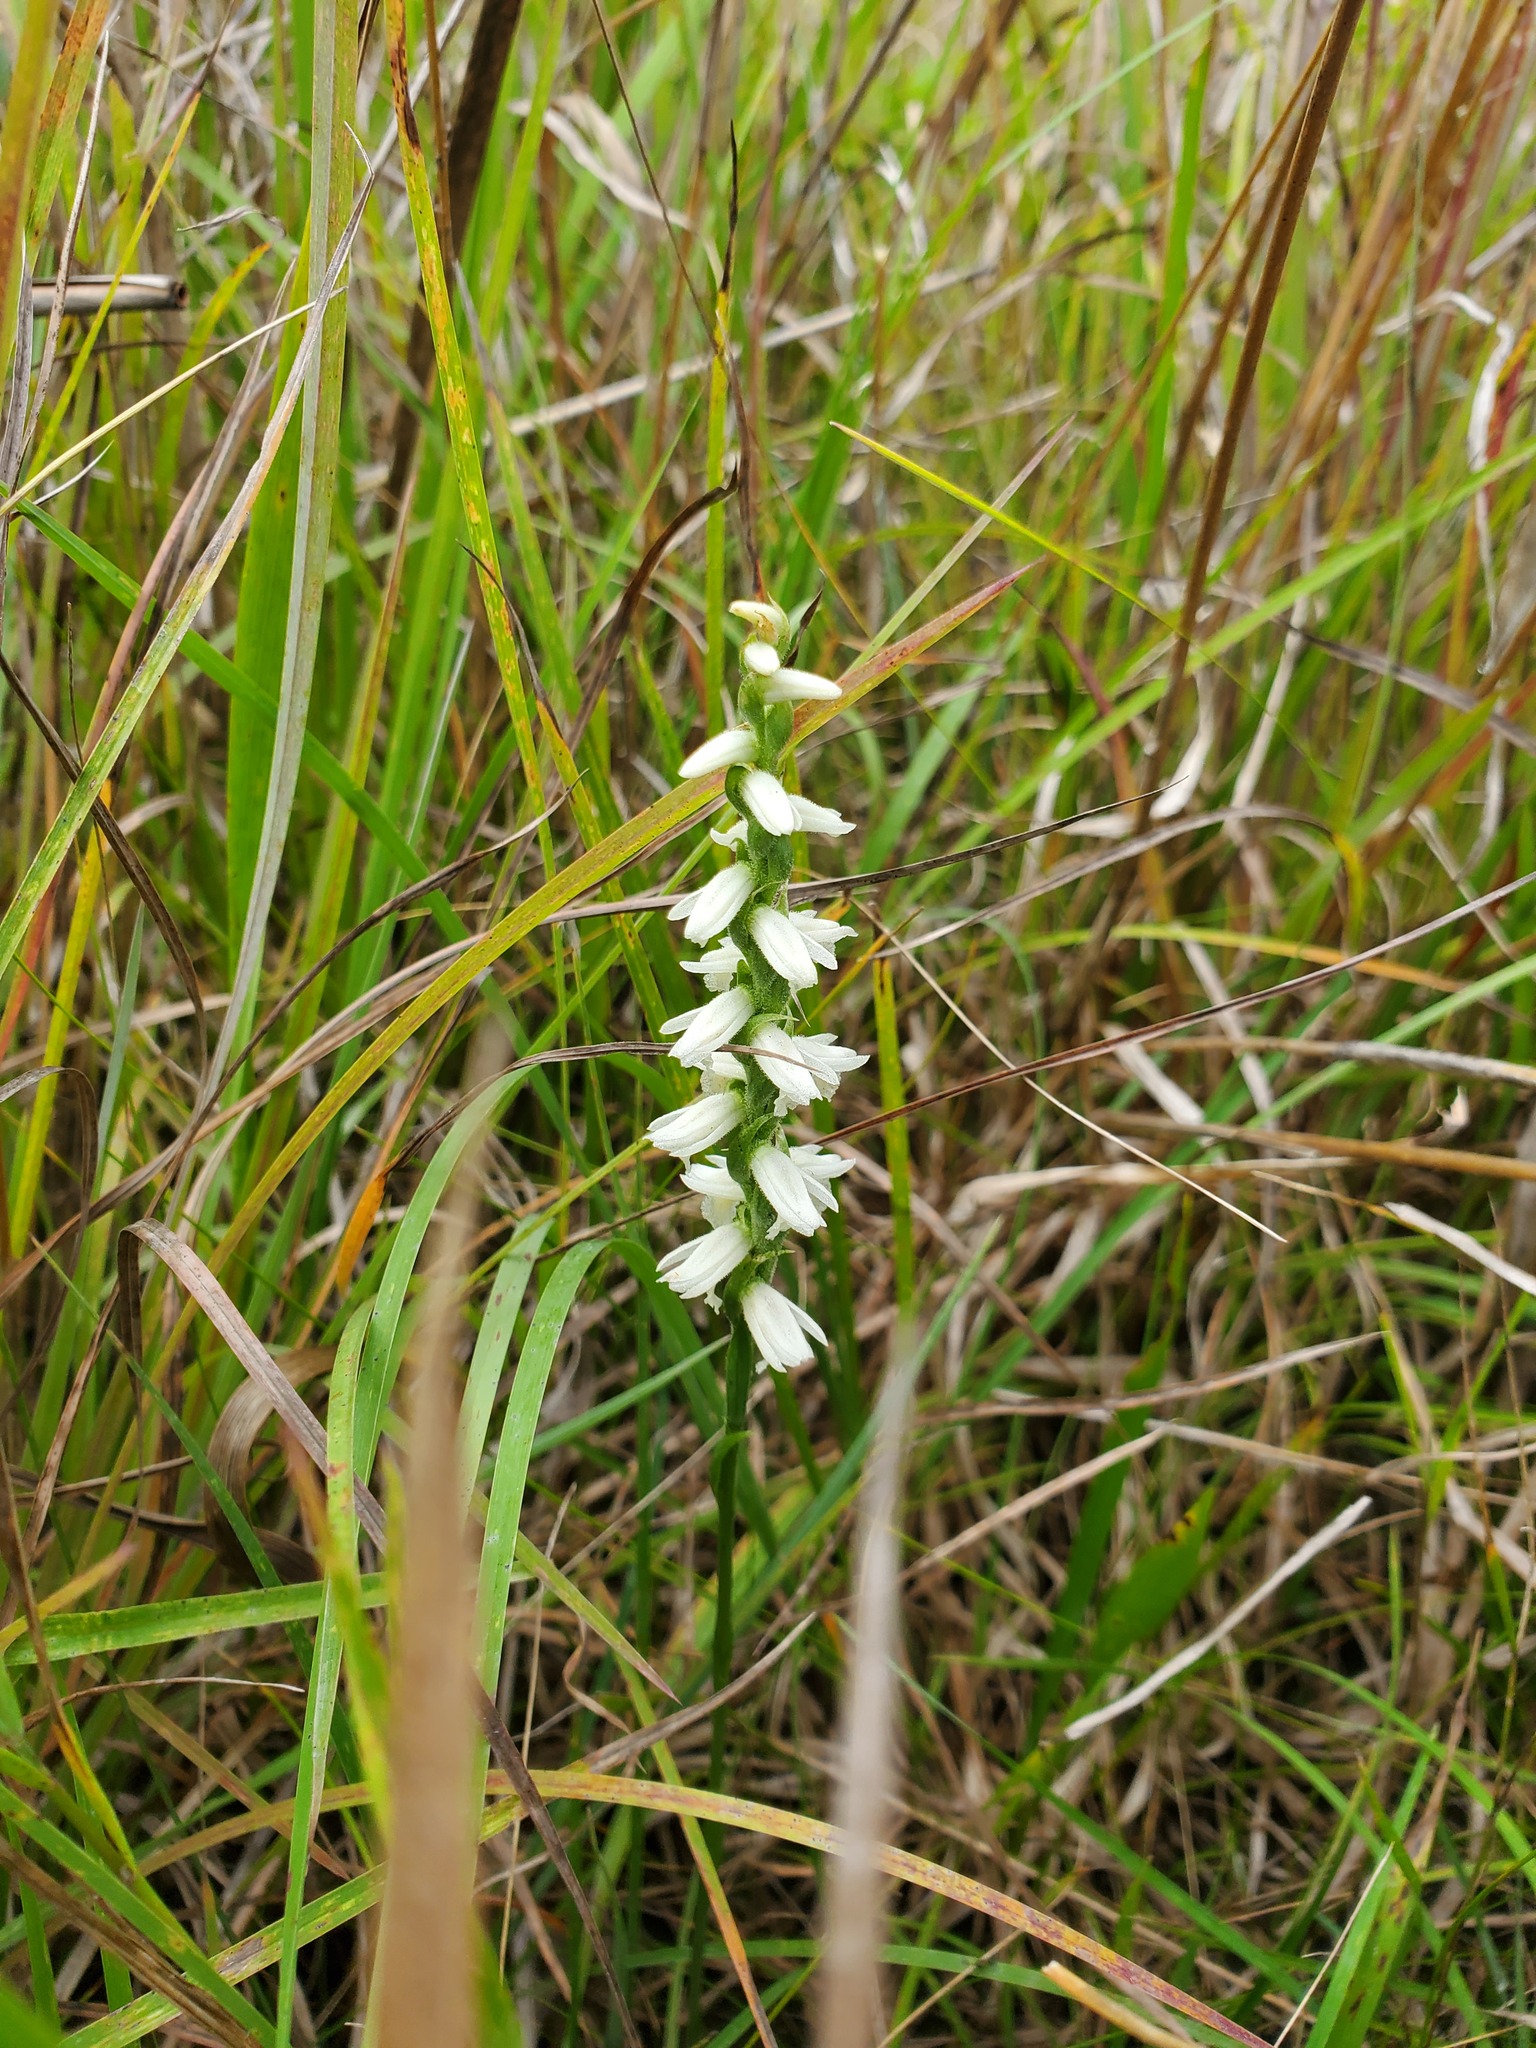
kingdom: Plantae
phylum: Tracheophyta
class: Liliopsida
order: Asparagales
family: Orchidaceae
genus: Spiranthes
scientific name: Spiranthes magnicamporum
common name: Great plains ladies'-tresses
